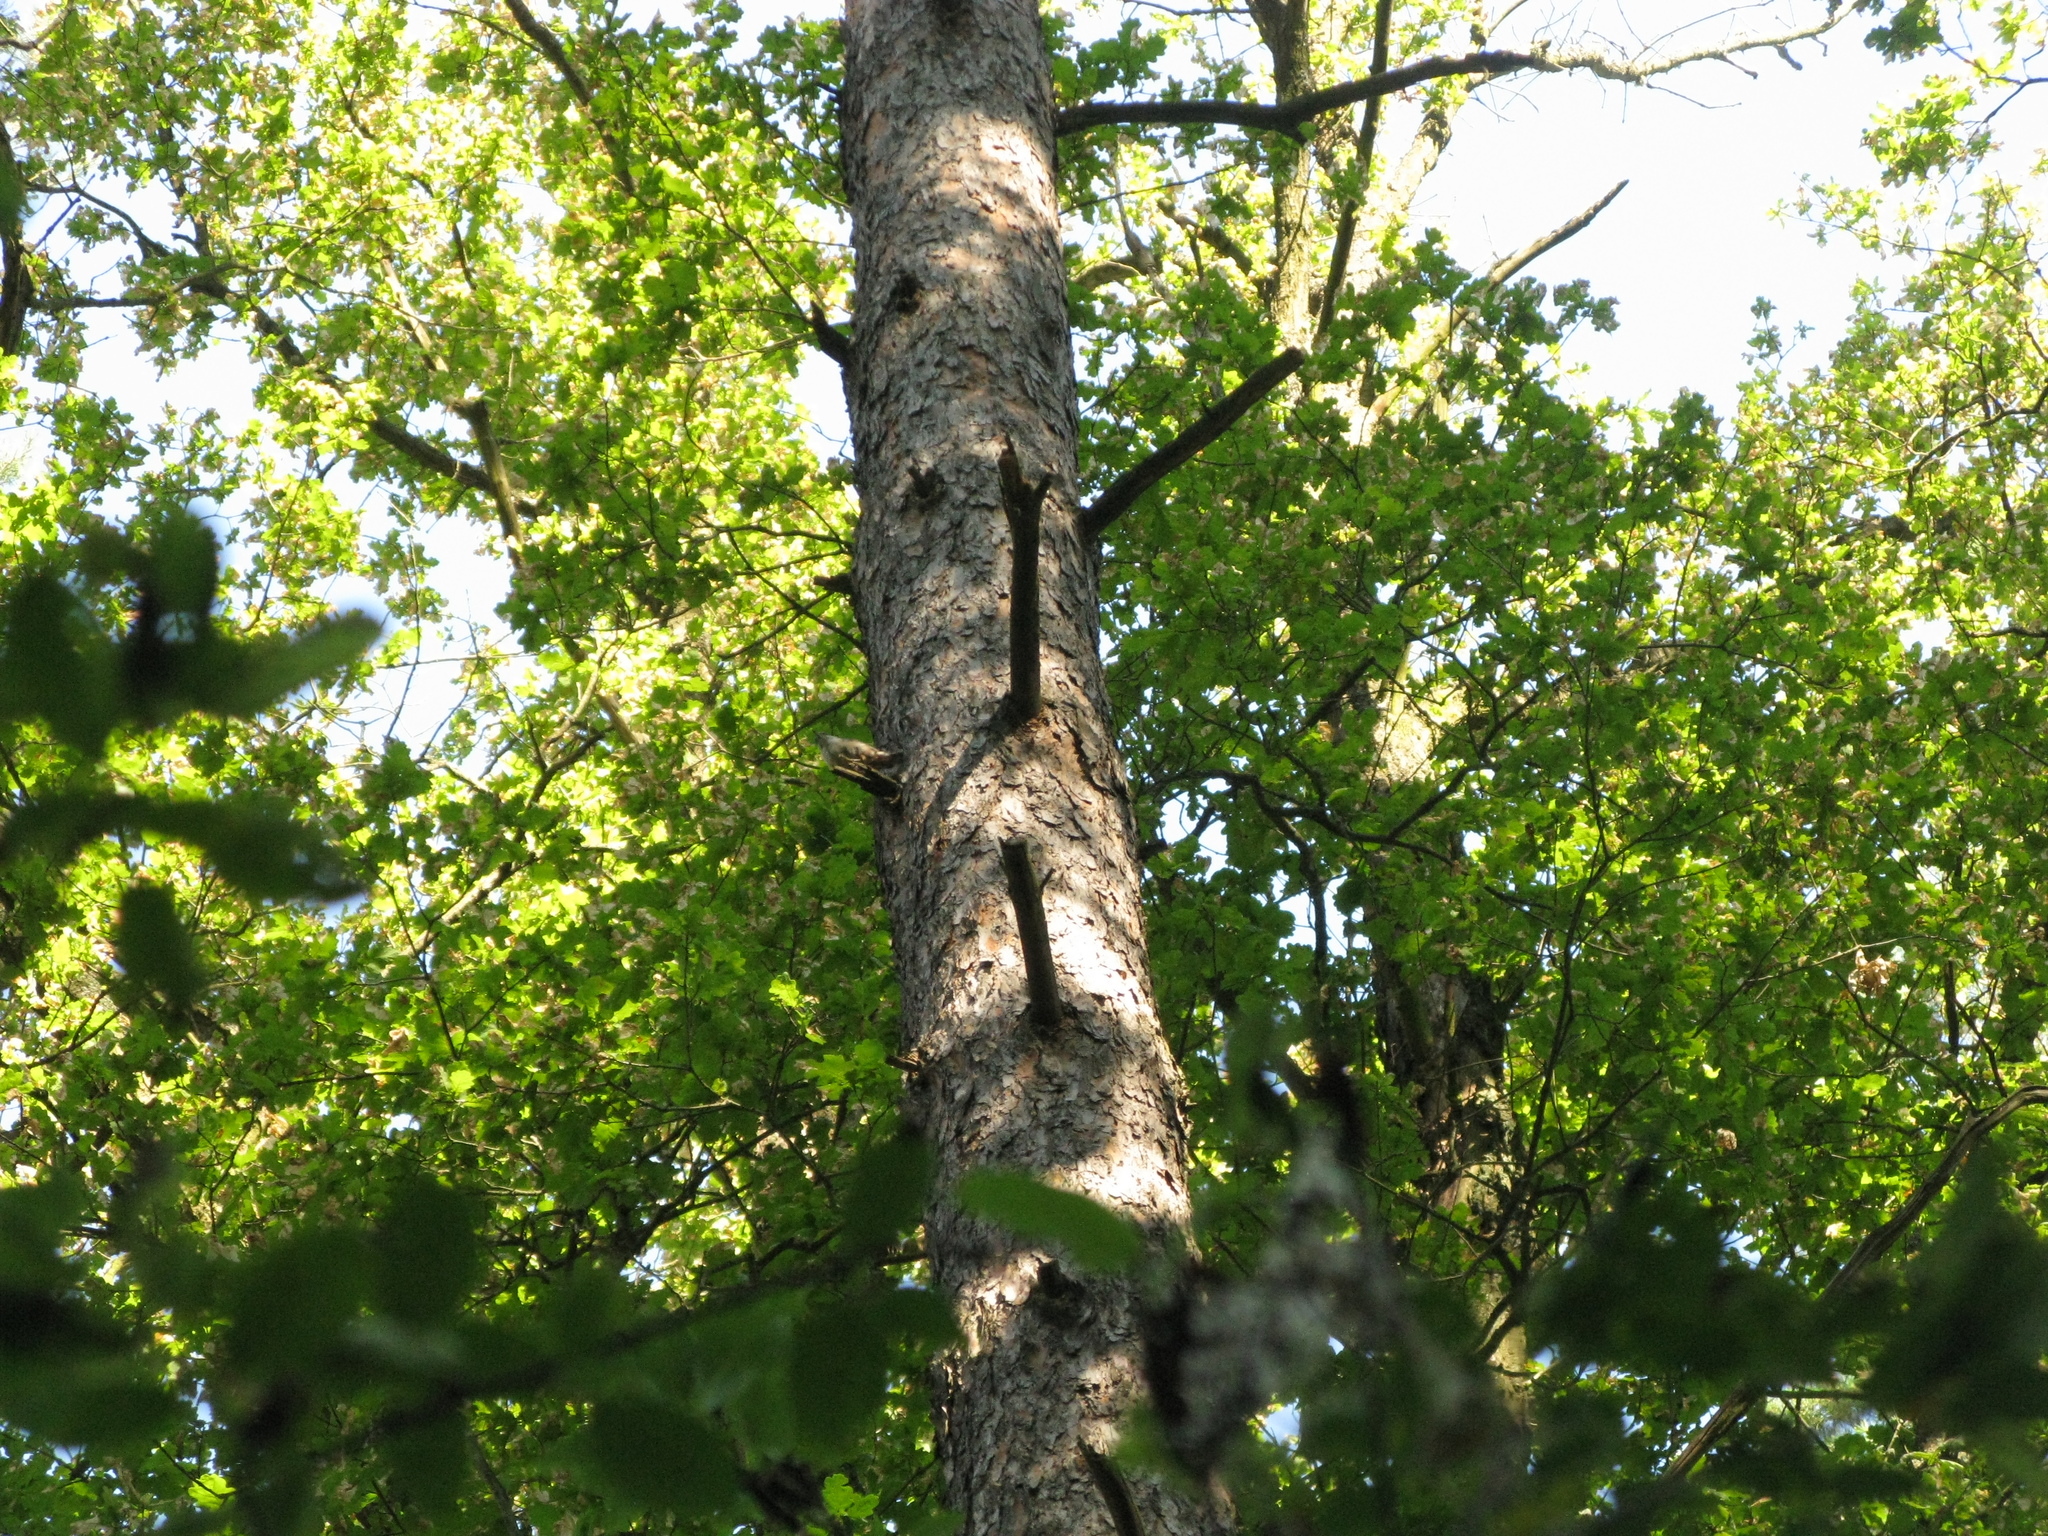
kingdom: Animalia
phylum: Chordata
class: Aves
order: Passeriformes
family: Sittidae
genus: Sitta
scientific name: Sitta europaea
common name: Eurasian nuthatch
